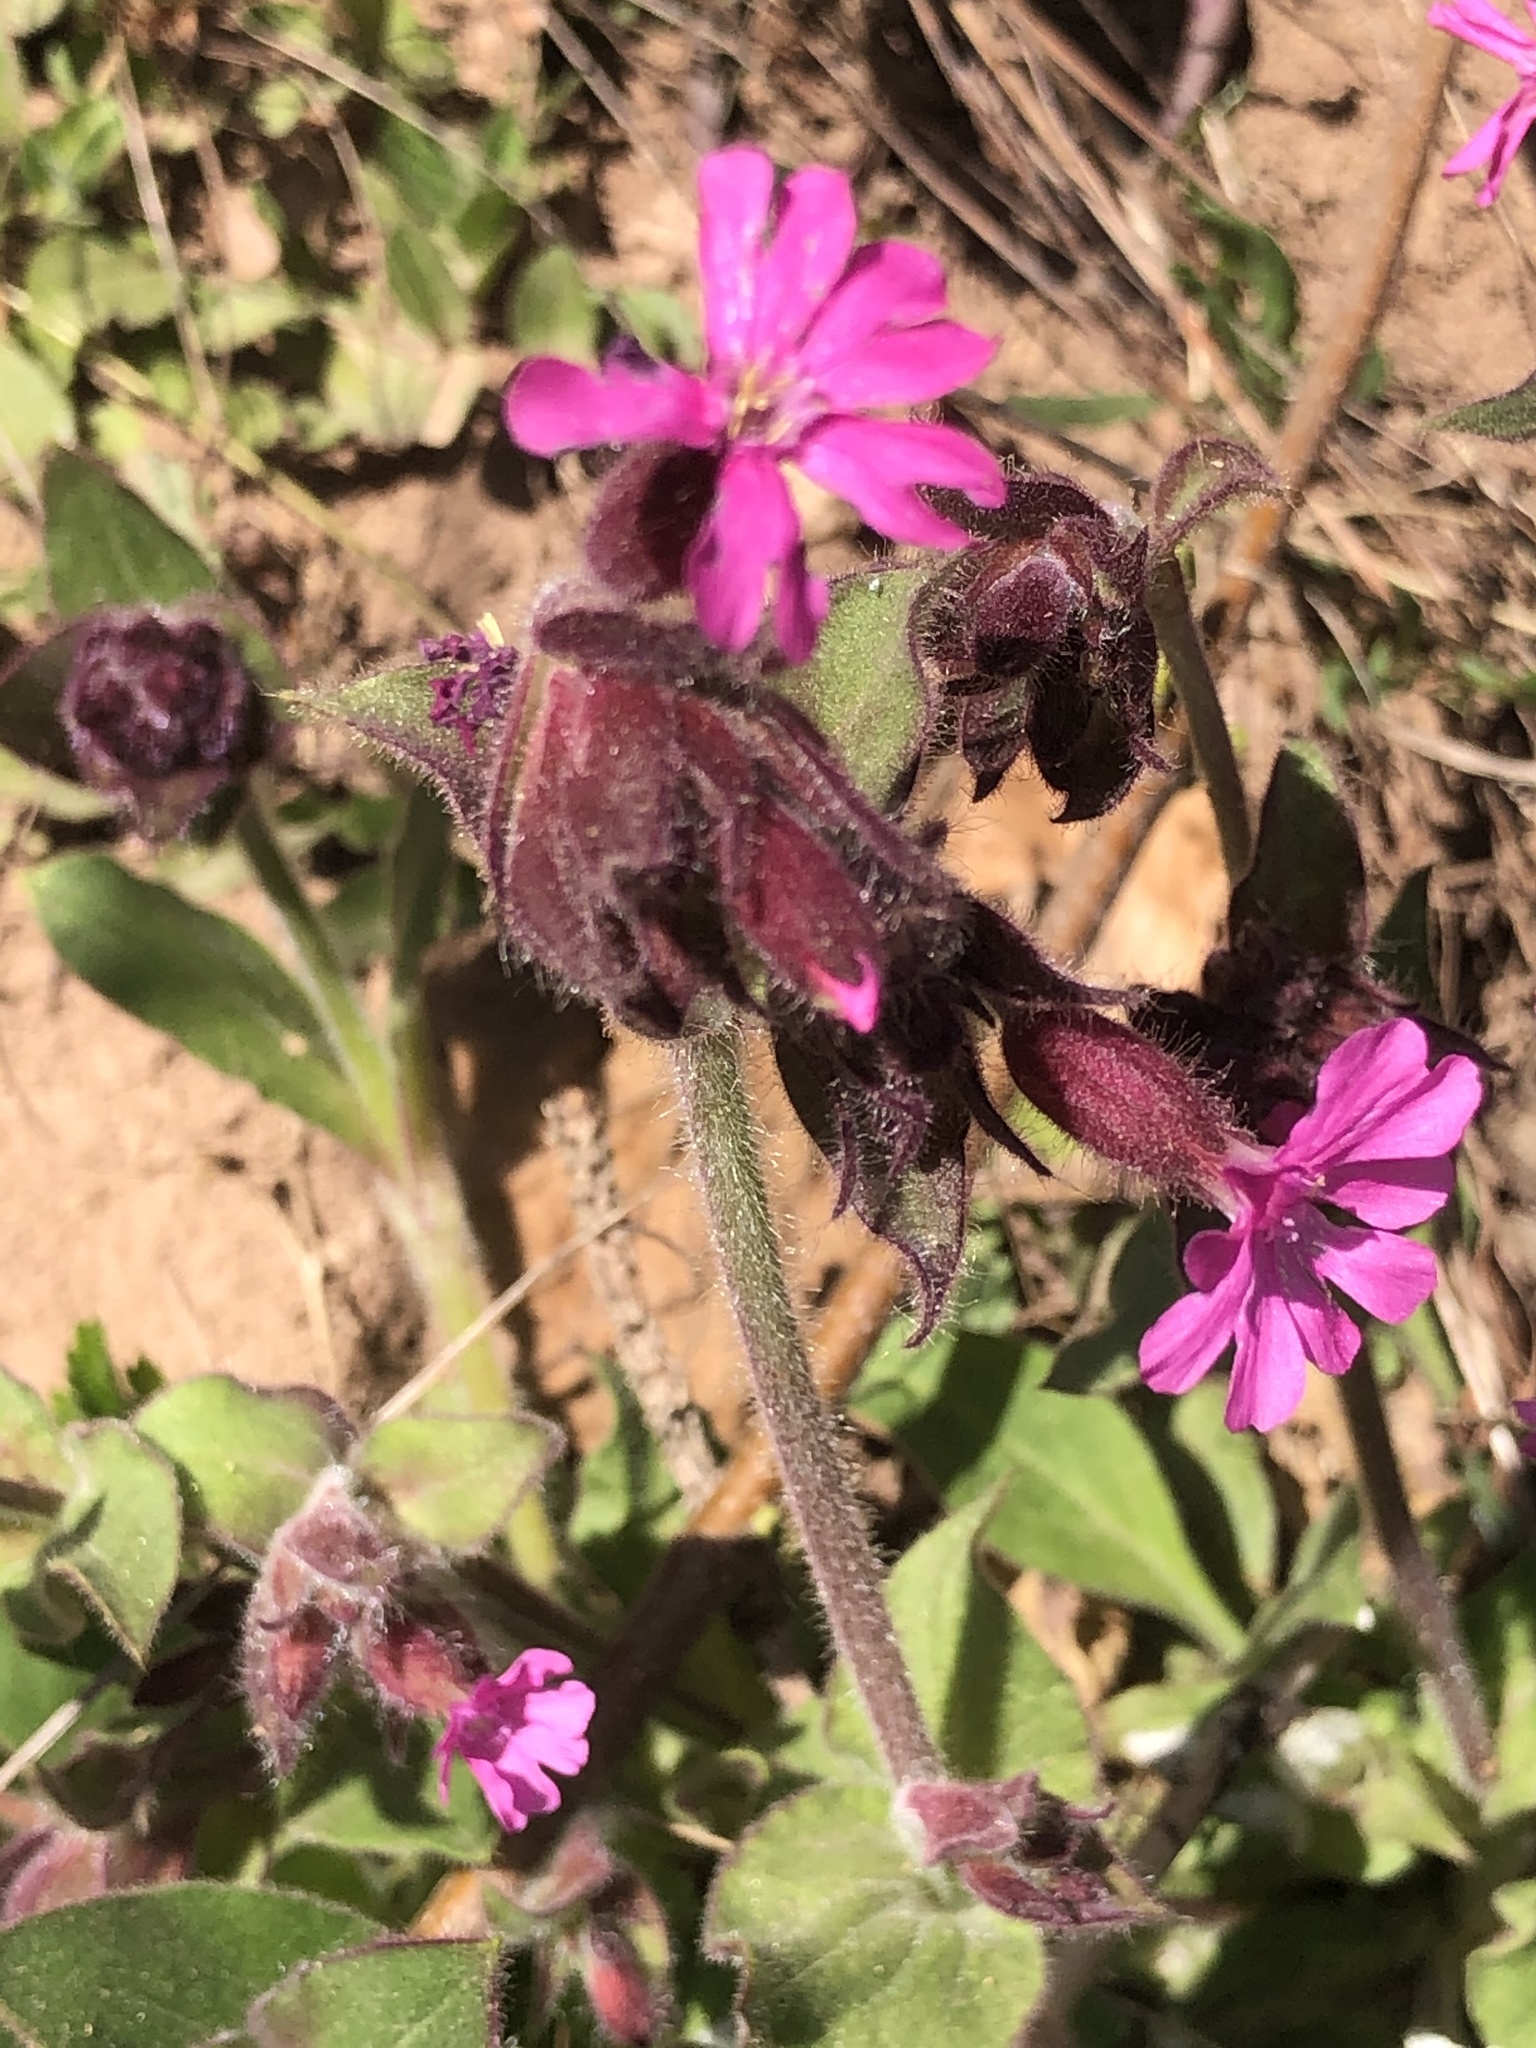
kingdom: Plantae
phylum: Tracheophyta
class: Magnoliopsida
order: Caryophyllales
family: Caryophyllaceae
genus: Silene
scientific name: Silene dioica
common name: Red campion
